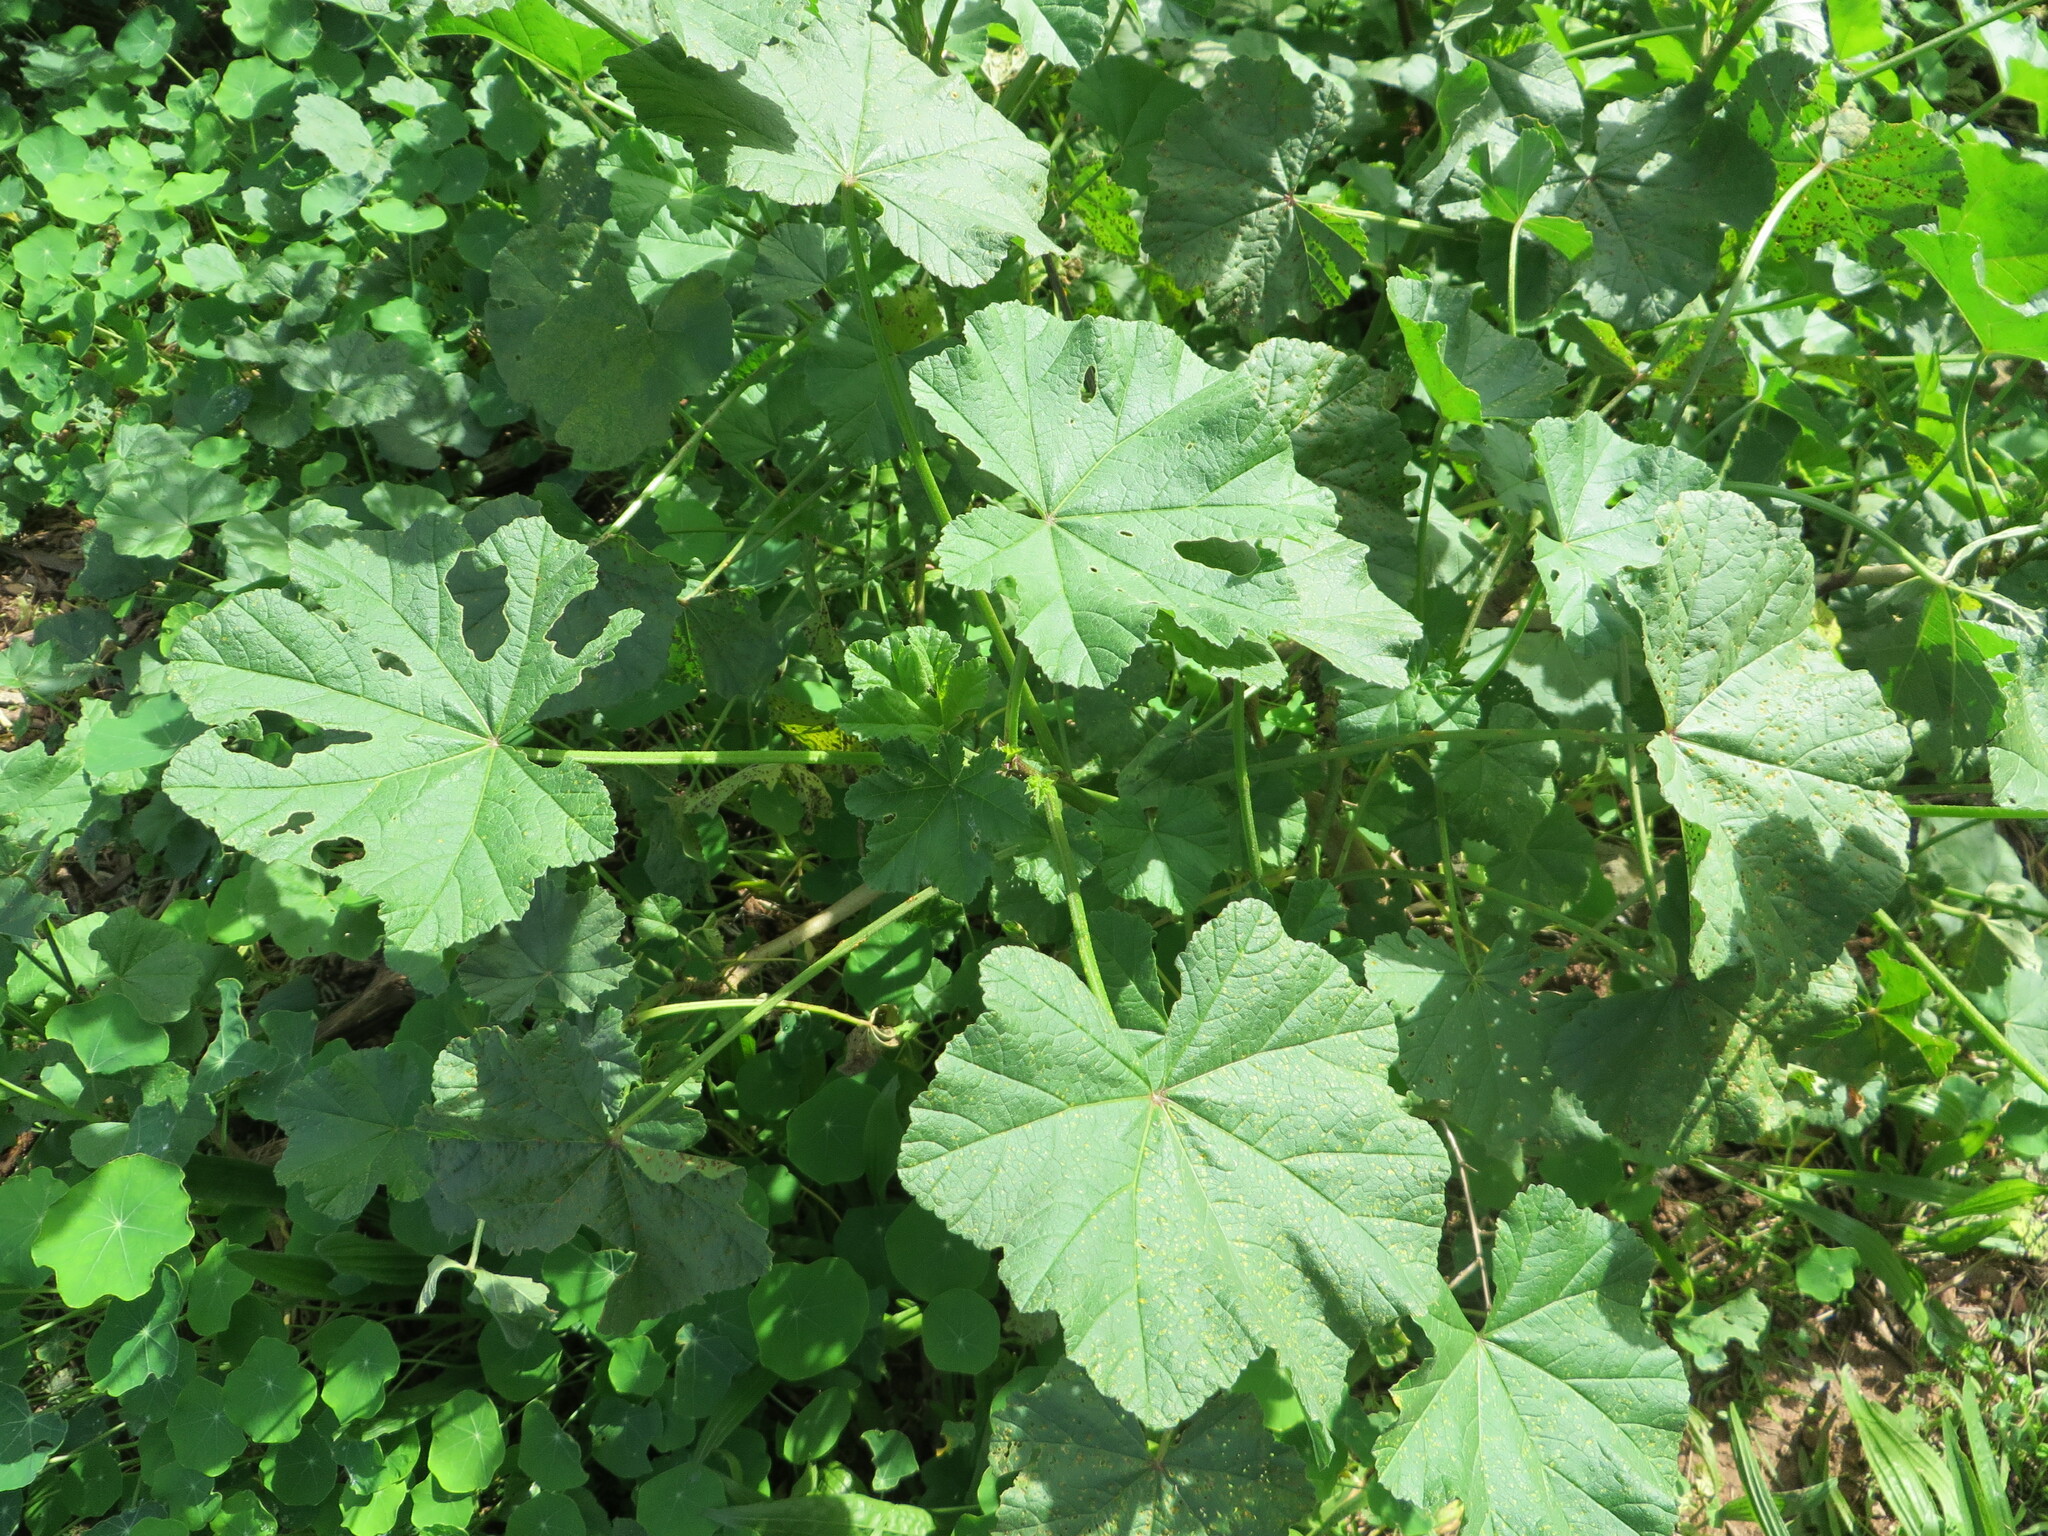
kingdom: Plantae
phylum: Tracheophyta
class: Magnoliopsida
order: Malvales
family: Malvaceae
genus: Malva
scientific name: Malva parviflora
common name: Least mallow
